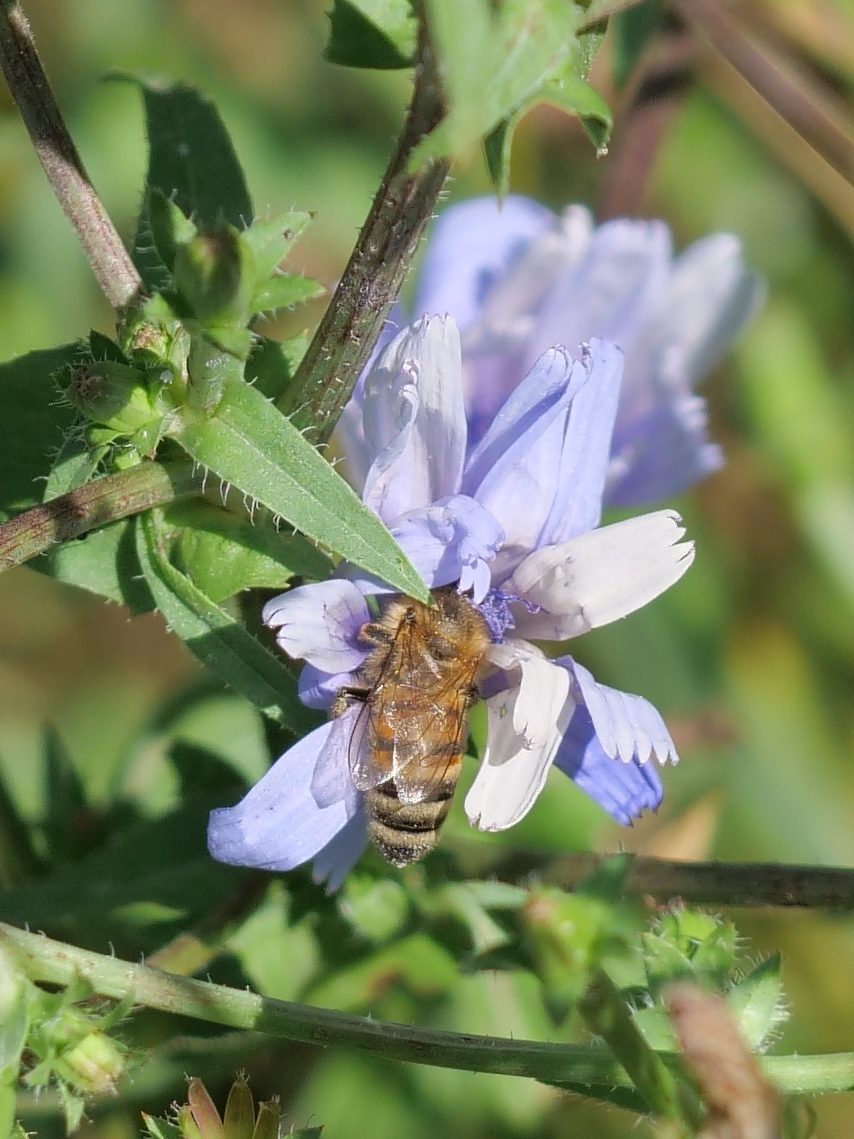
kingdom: Animalia
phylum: Arthropoda
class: Insecta
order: Hymenoptera
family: Apidae
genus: Apis
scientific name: Apis mellifera
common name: Honey bee
